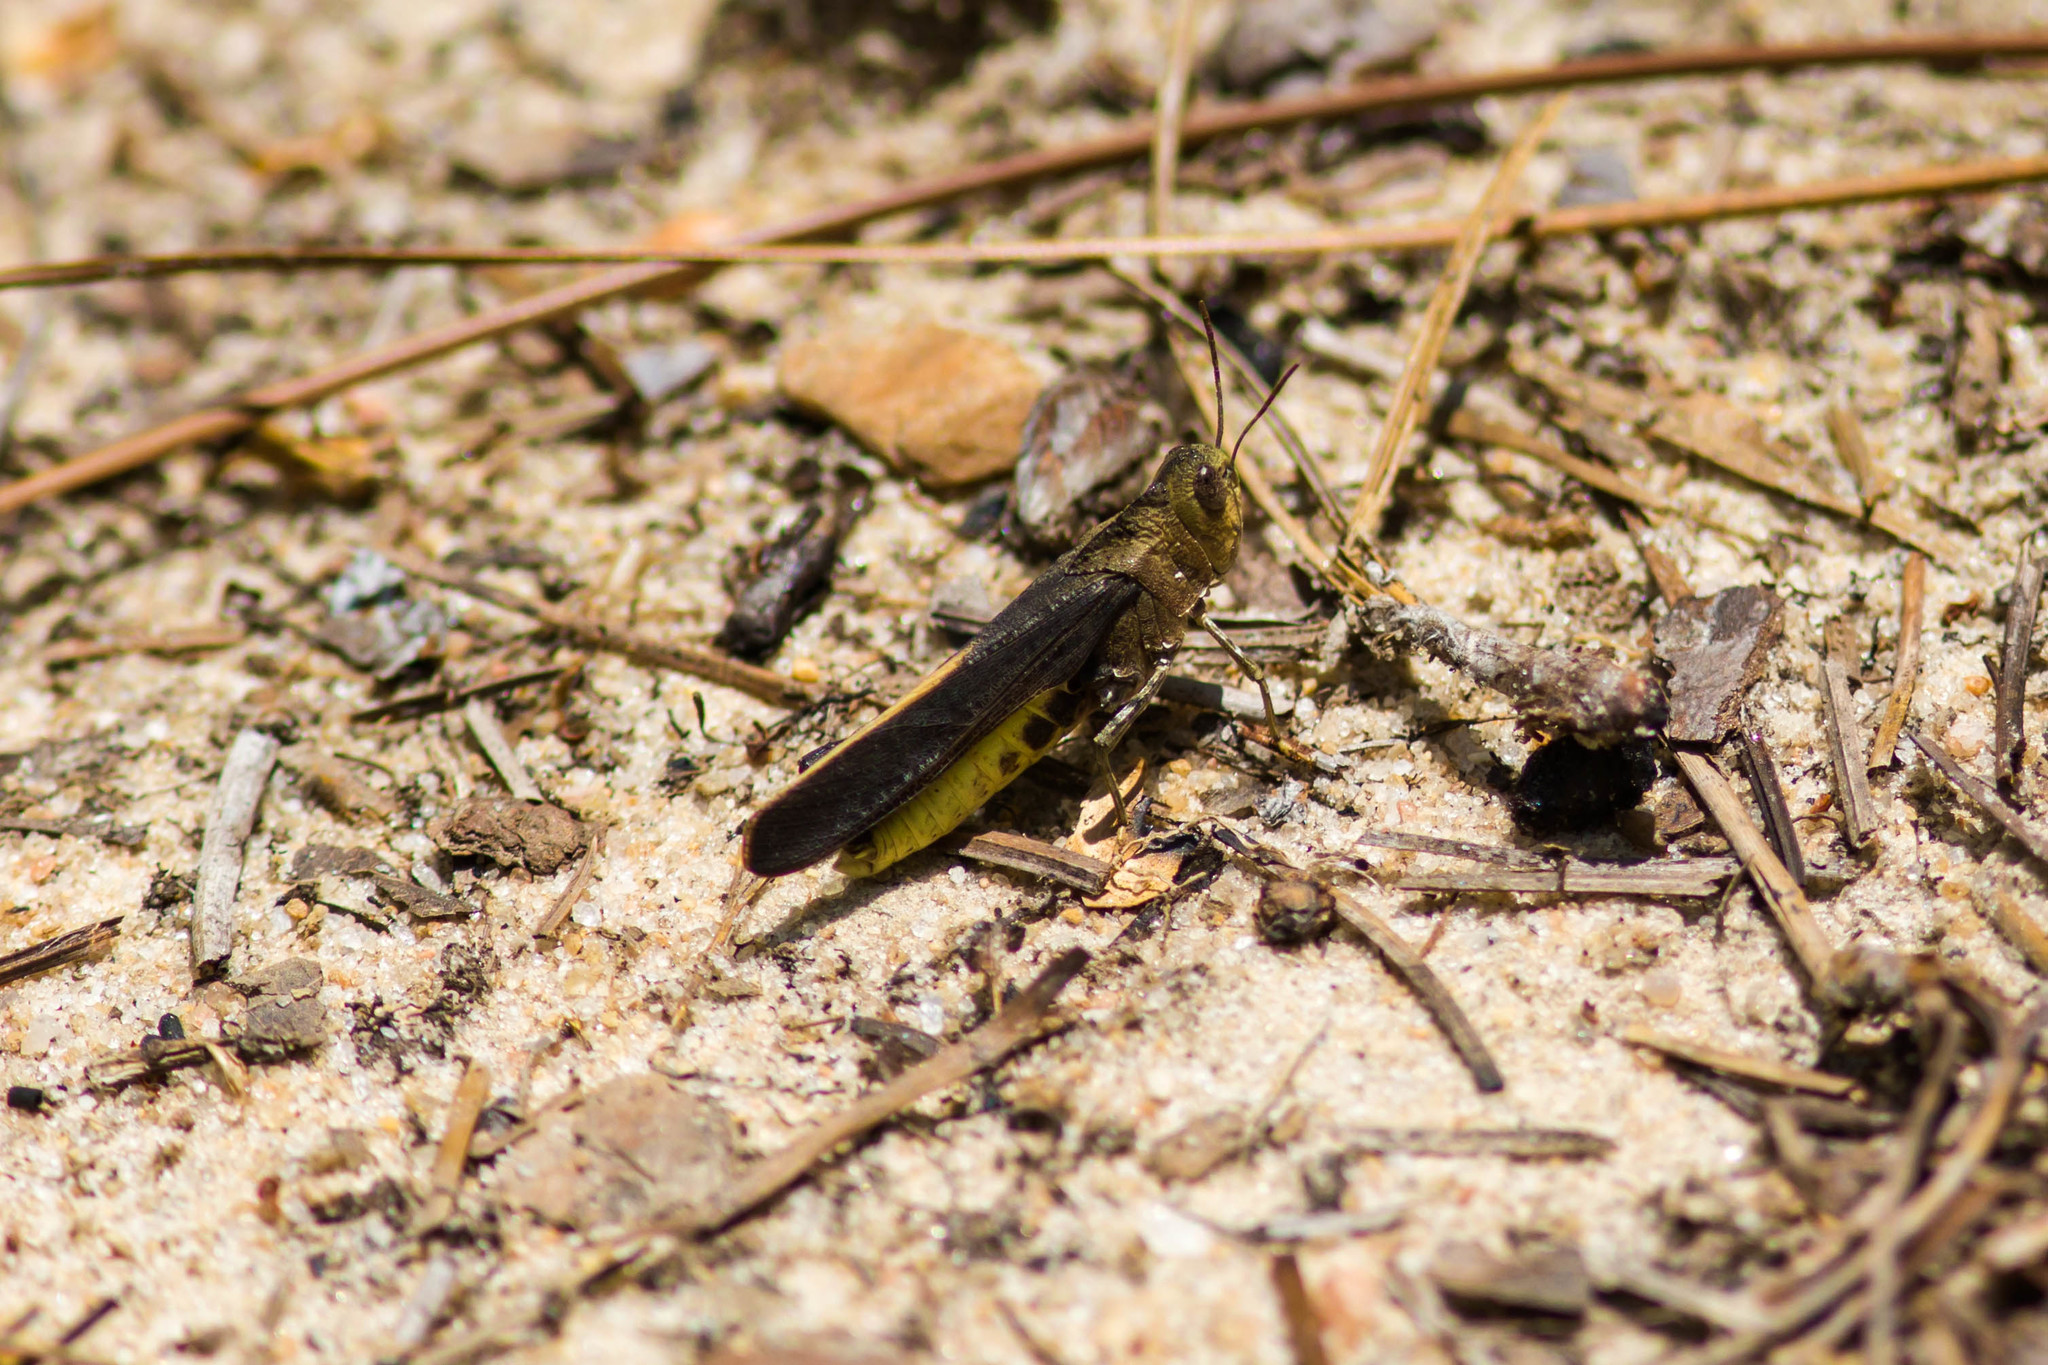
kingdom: Animalia
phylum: Arthropoda
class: Insecta
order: Orthoptera
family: Acrididae
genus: Arphia
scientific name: Arphia granulata
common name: Southern yellow-winged grasshopper
